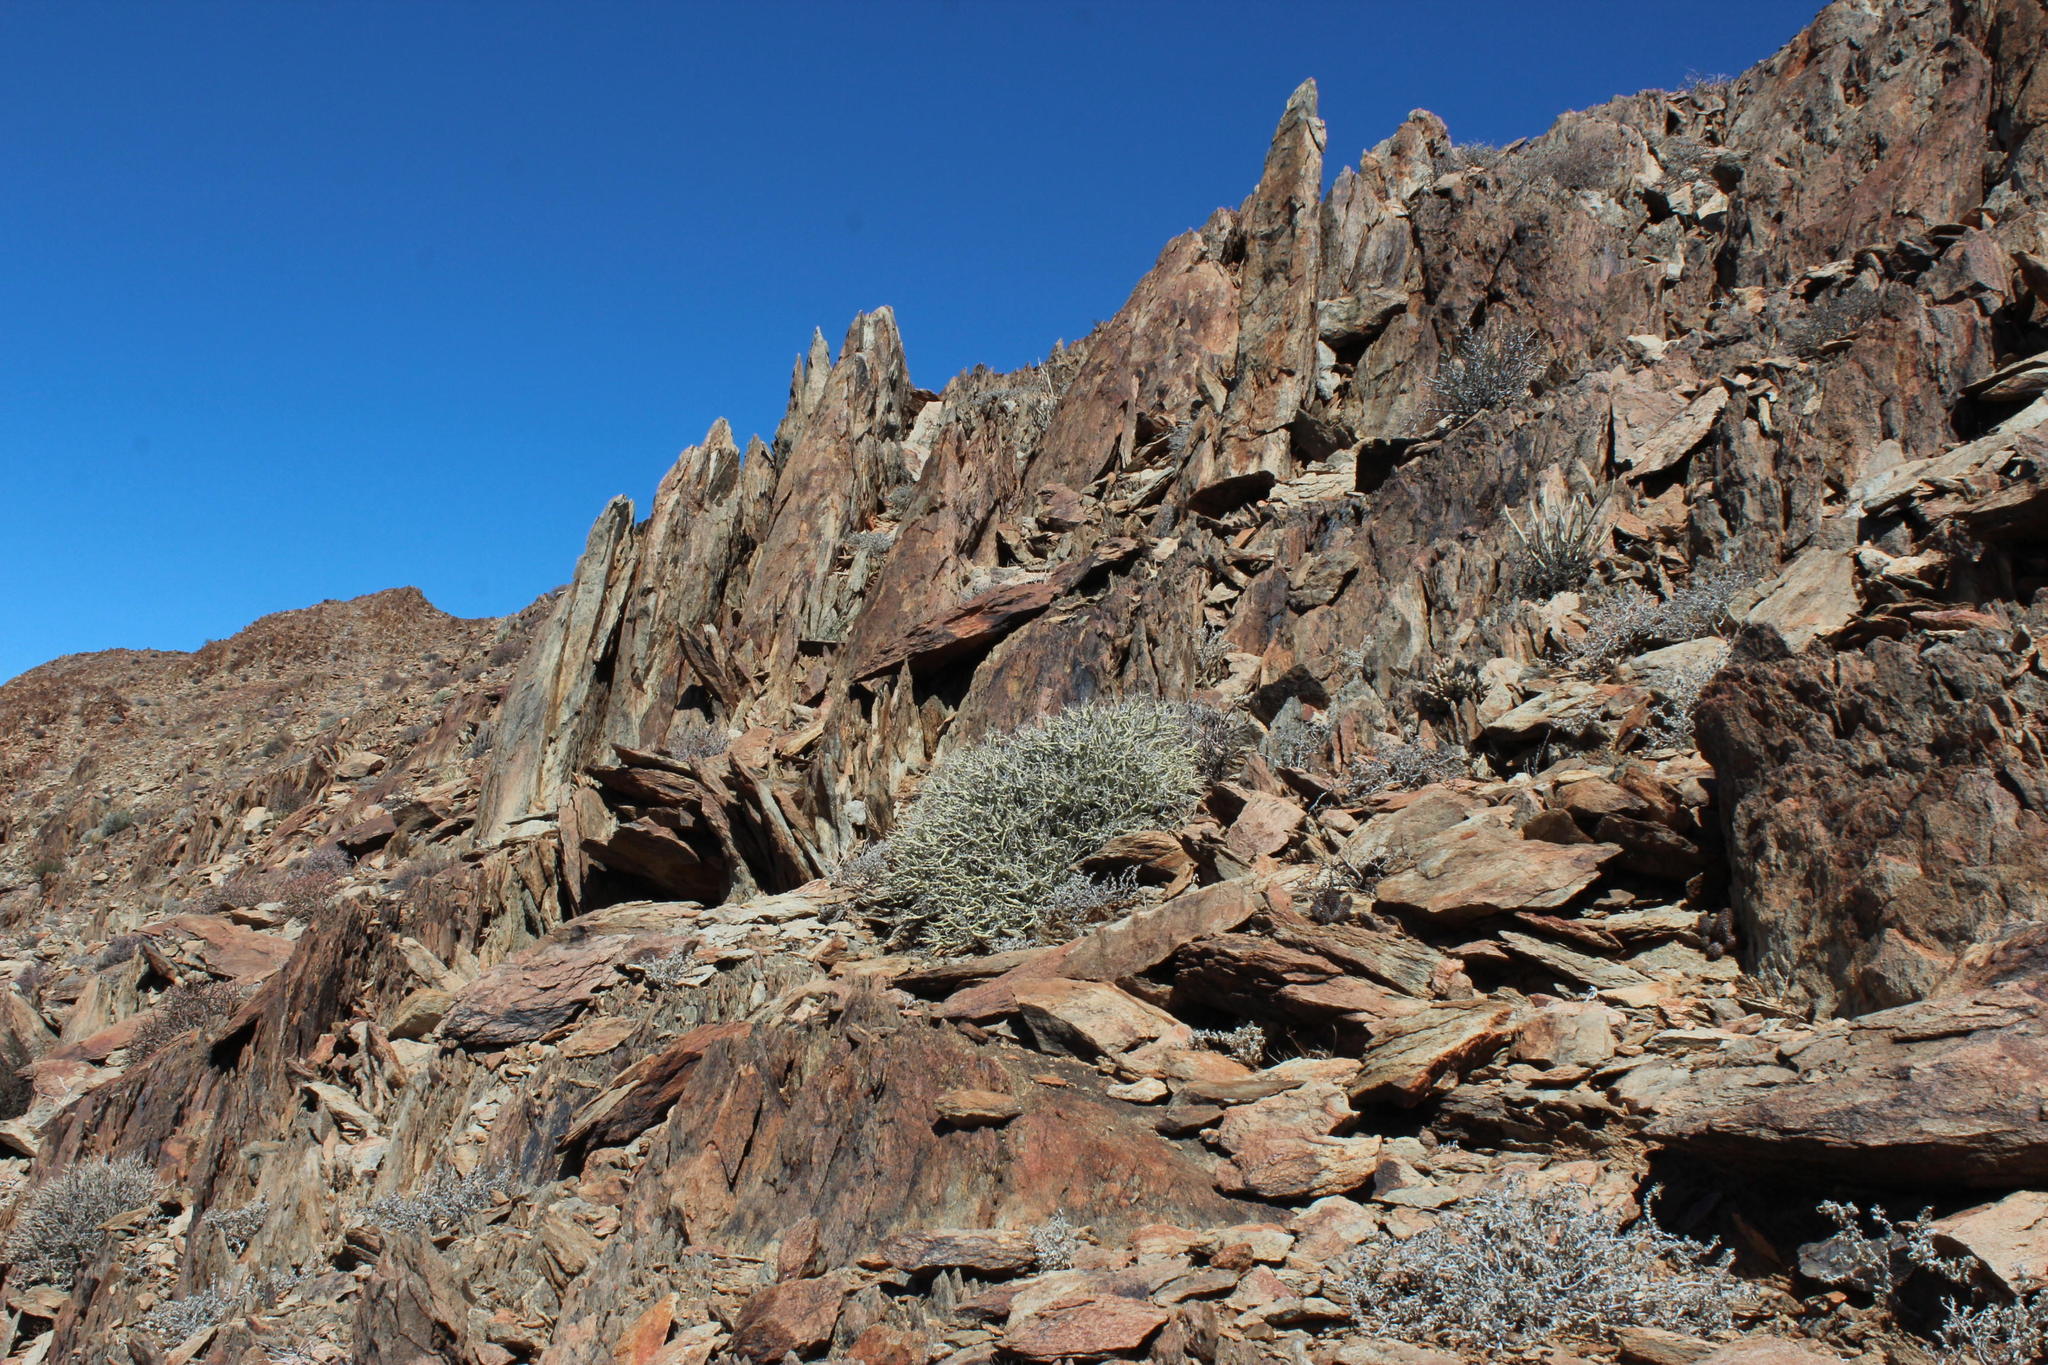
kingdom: Plantae
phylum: Tracheophyta
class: Magnoliopsida
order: Malpighiales
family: Euphorbiaceae
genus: Euphorbia
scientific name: Euphorbia gariepina
